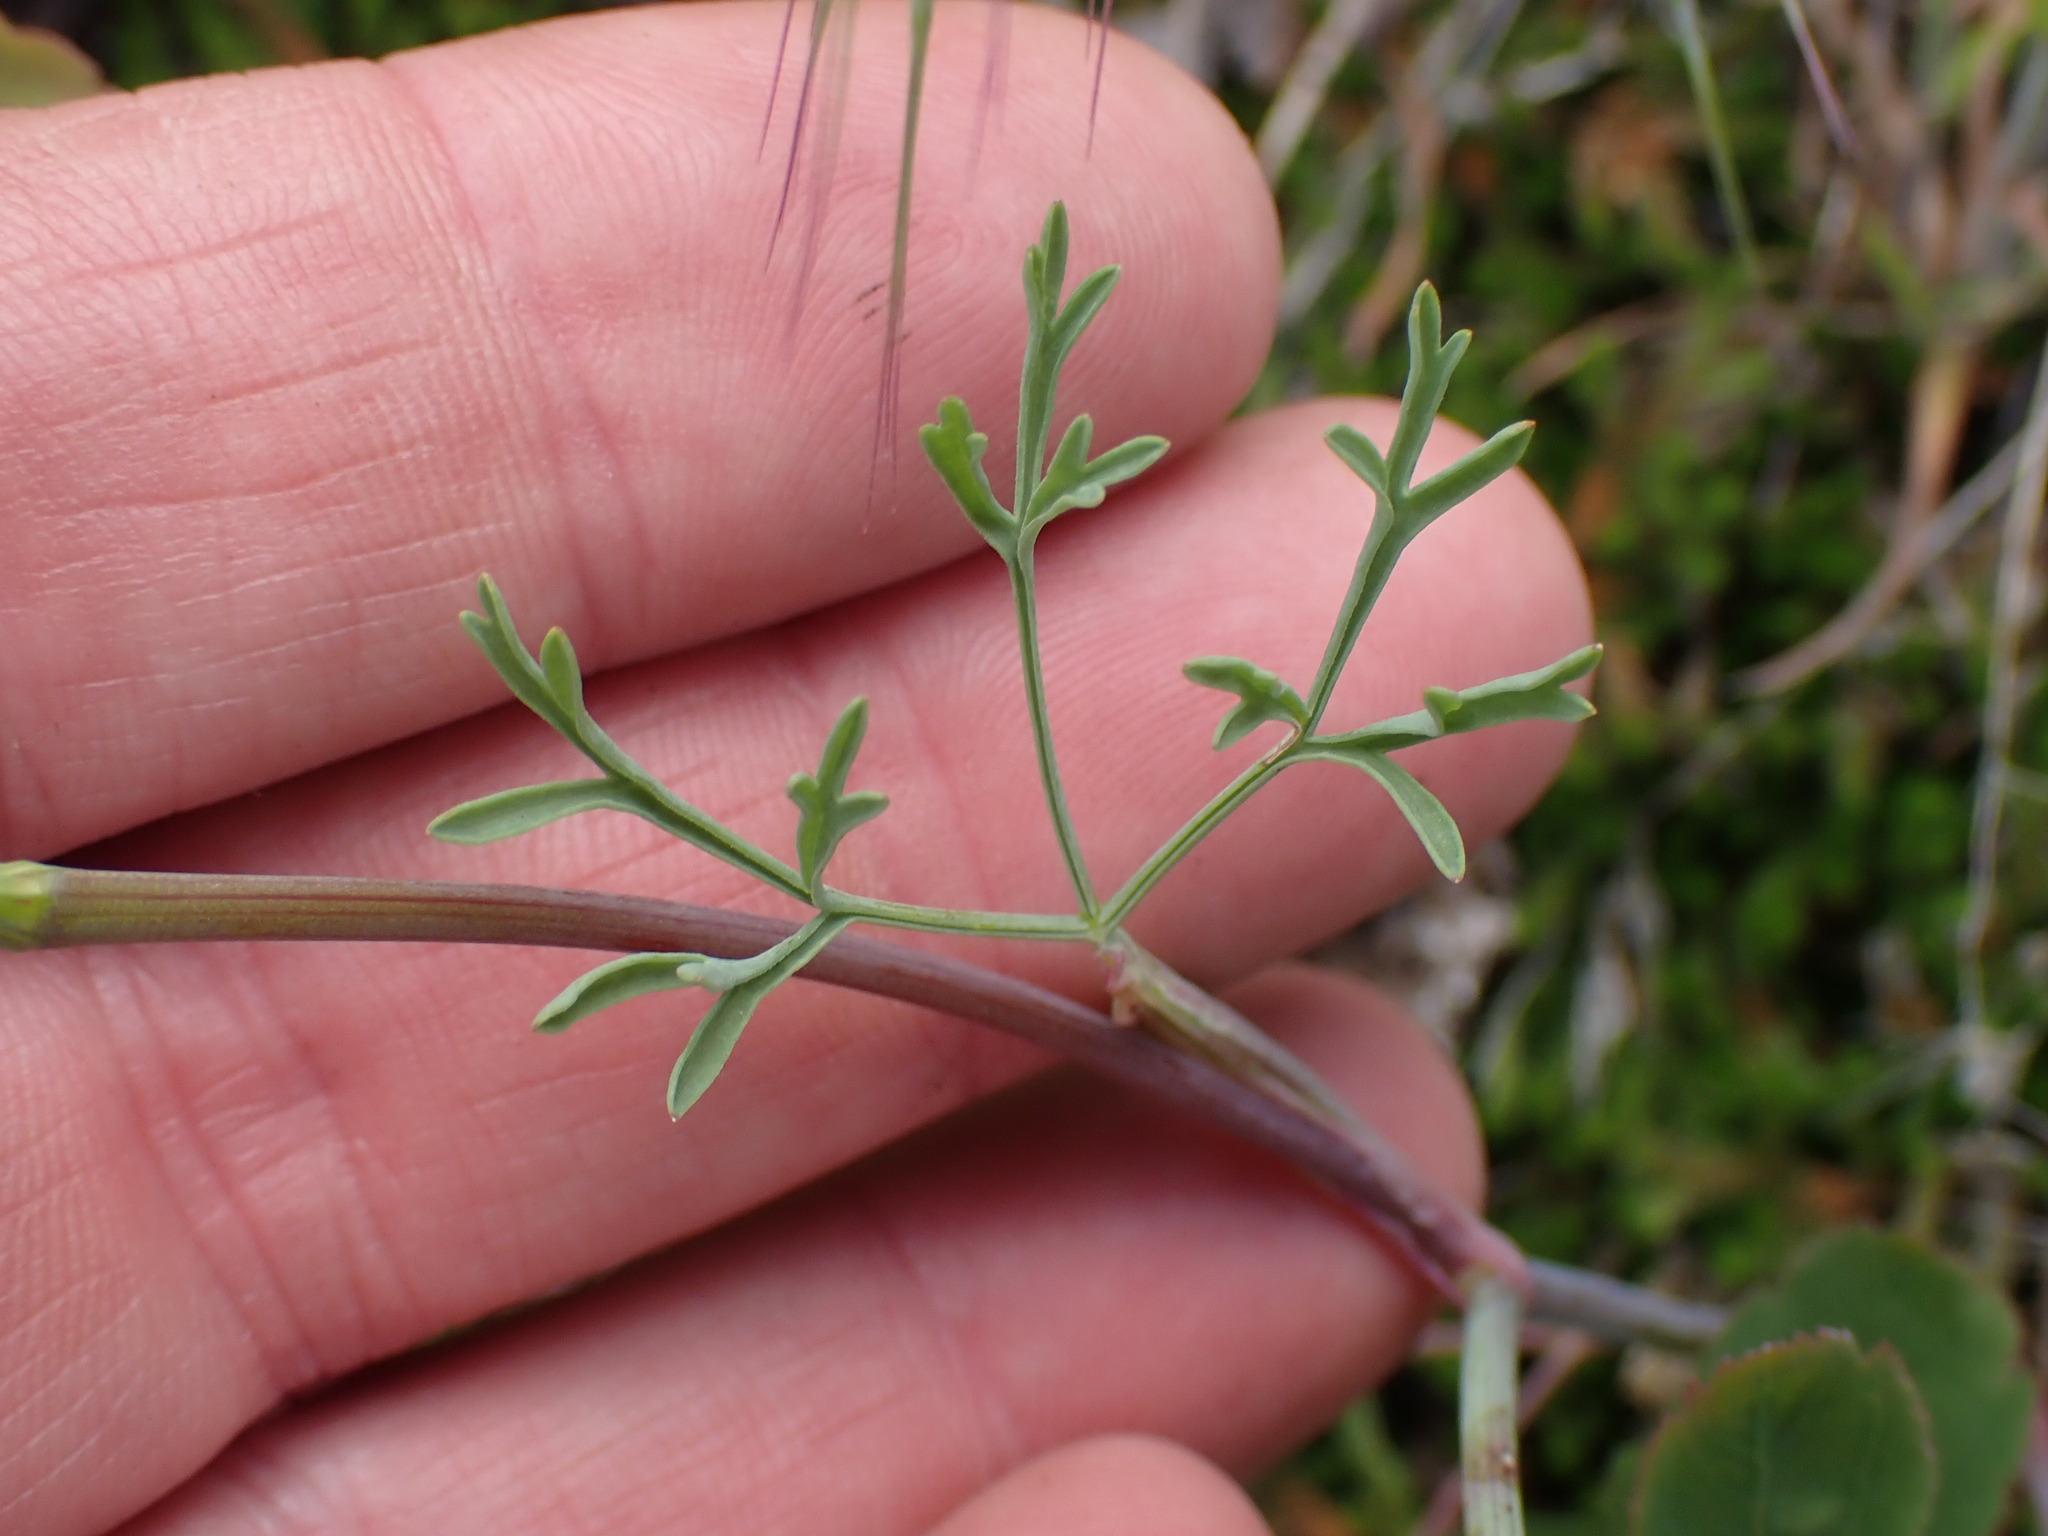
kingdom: Plantae
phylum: Tracheophyta
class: Magnoliopsida
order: Apiales
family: Apiaceae
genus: Lomatium
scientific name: Lomatium ambiguum
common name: Lacy lomatium
